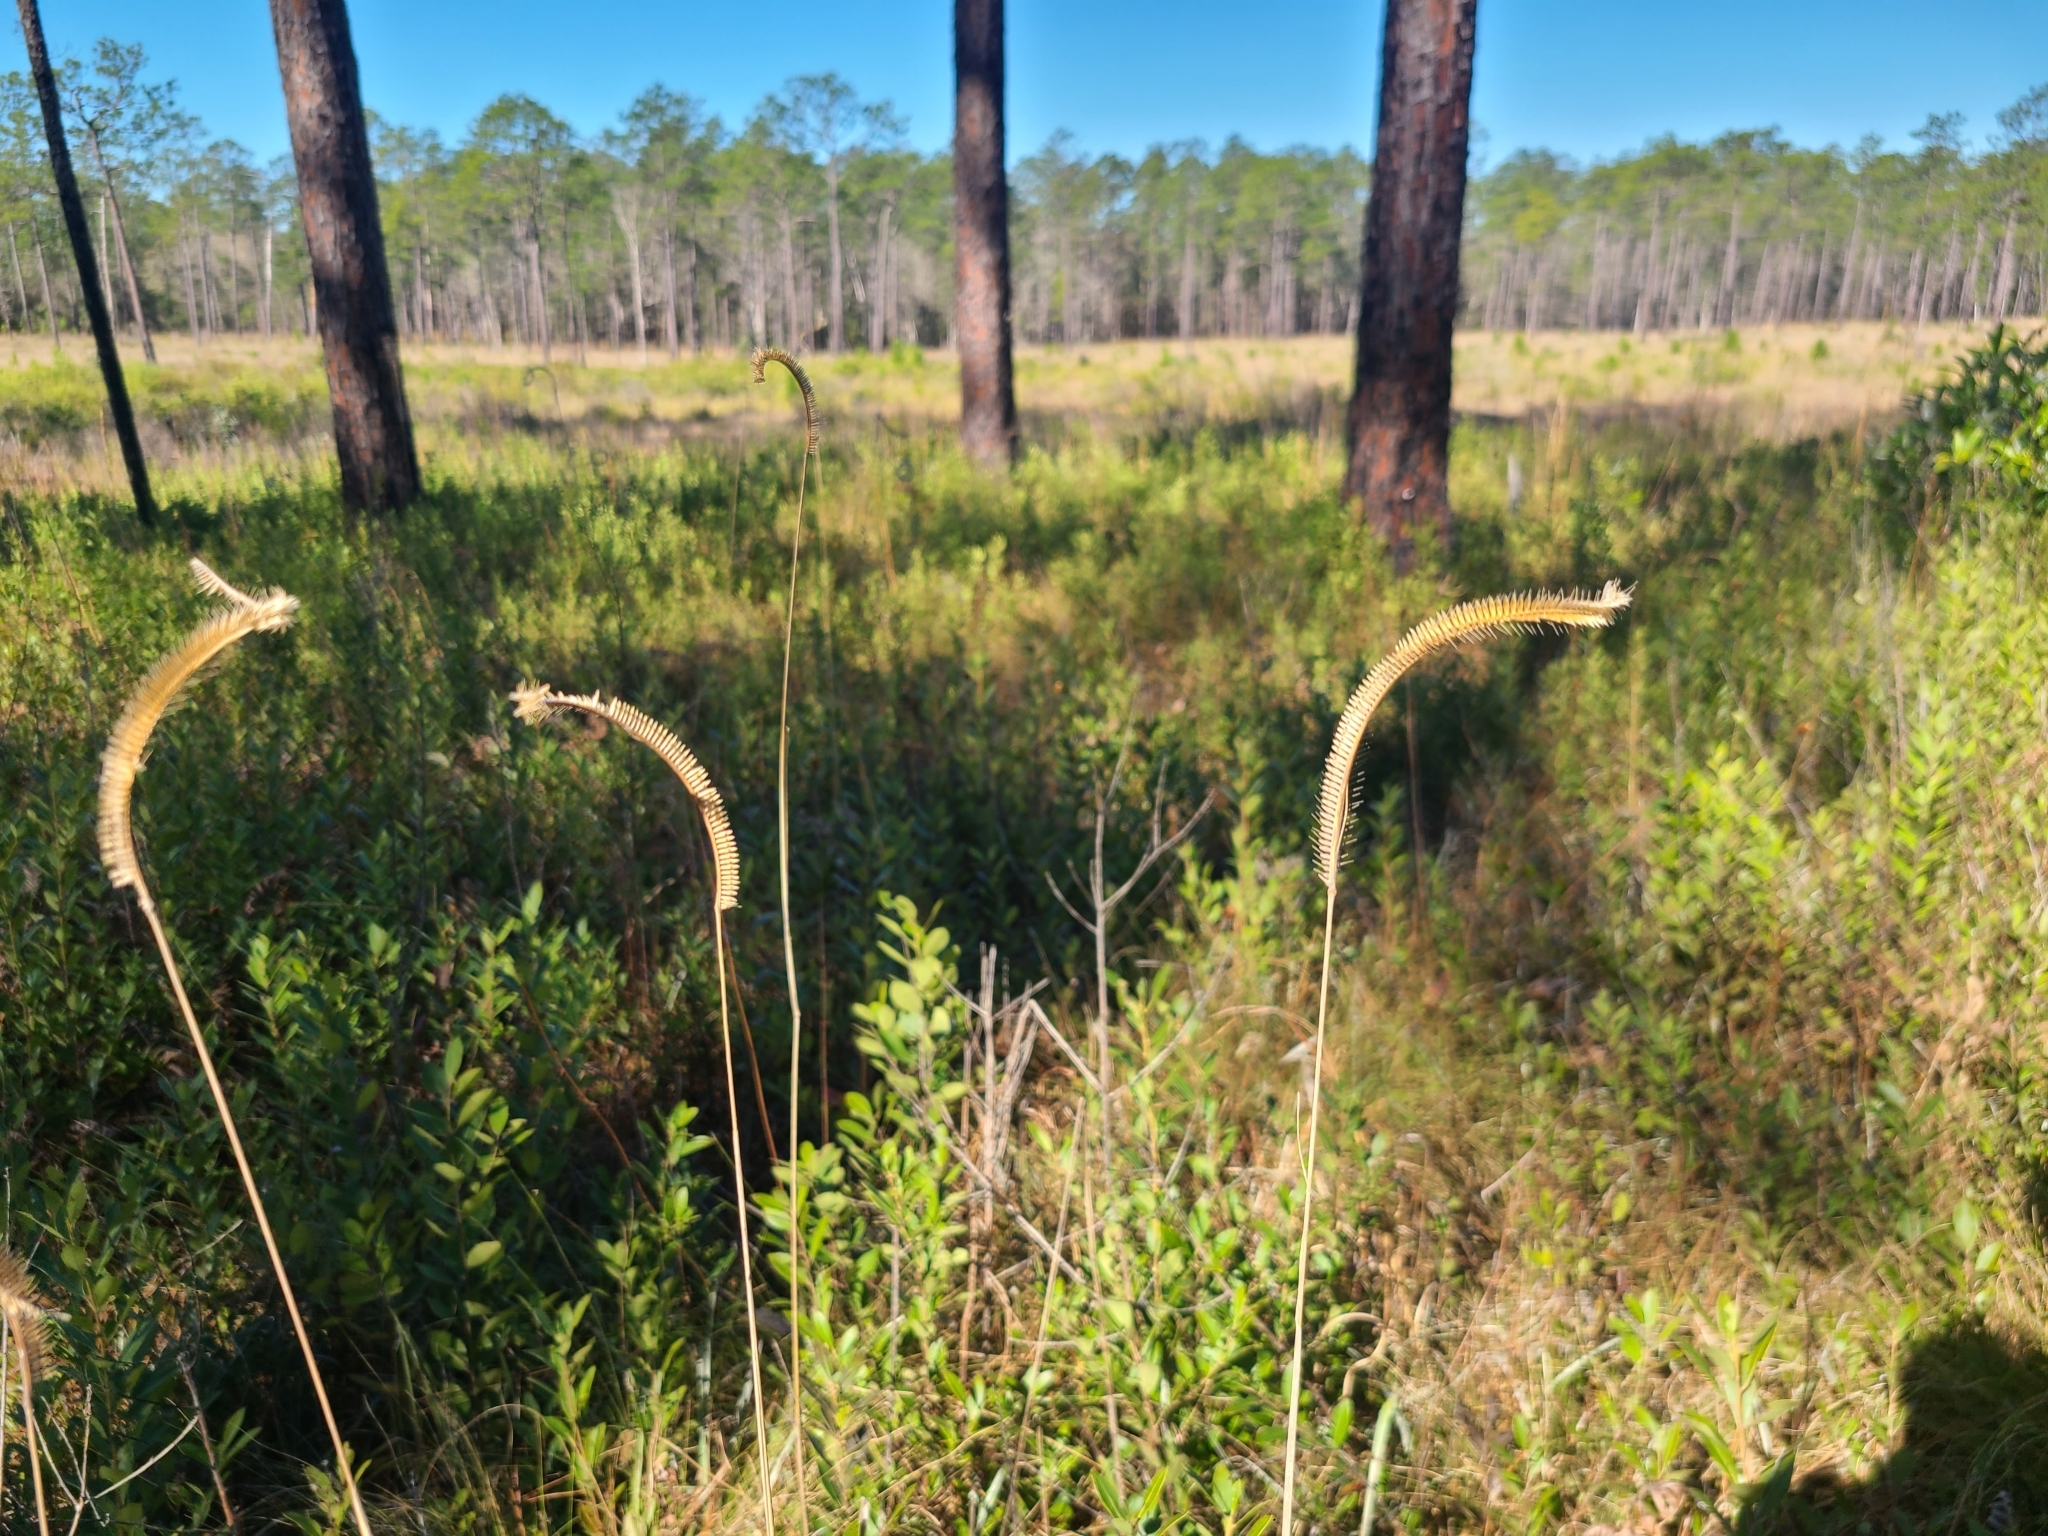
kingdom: Plantae
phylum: Tracheophyta
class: Liliopsida
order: Poales
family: Poaceae
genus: Ctenium
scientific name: Ctenium aromaticum
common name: Toothache grass
